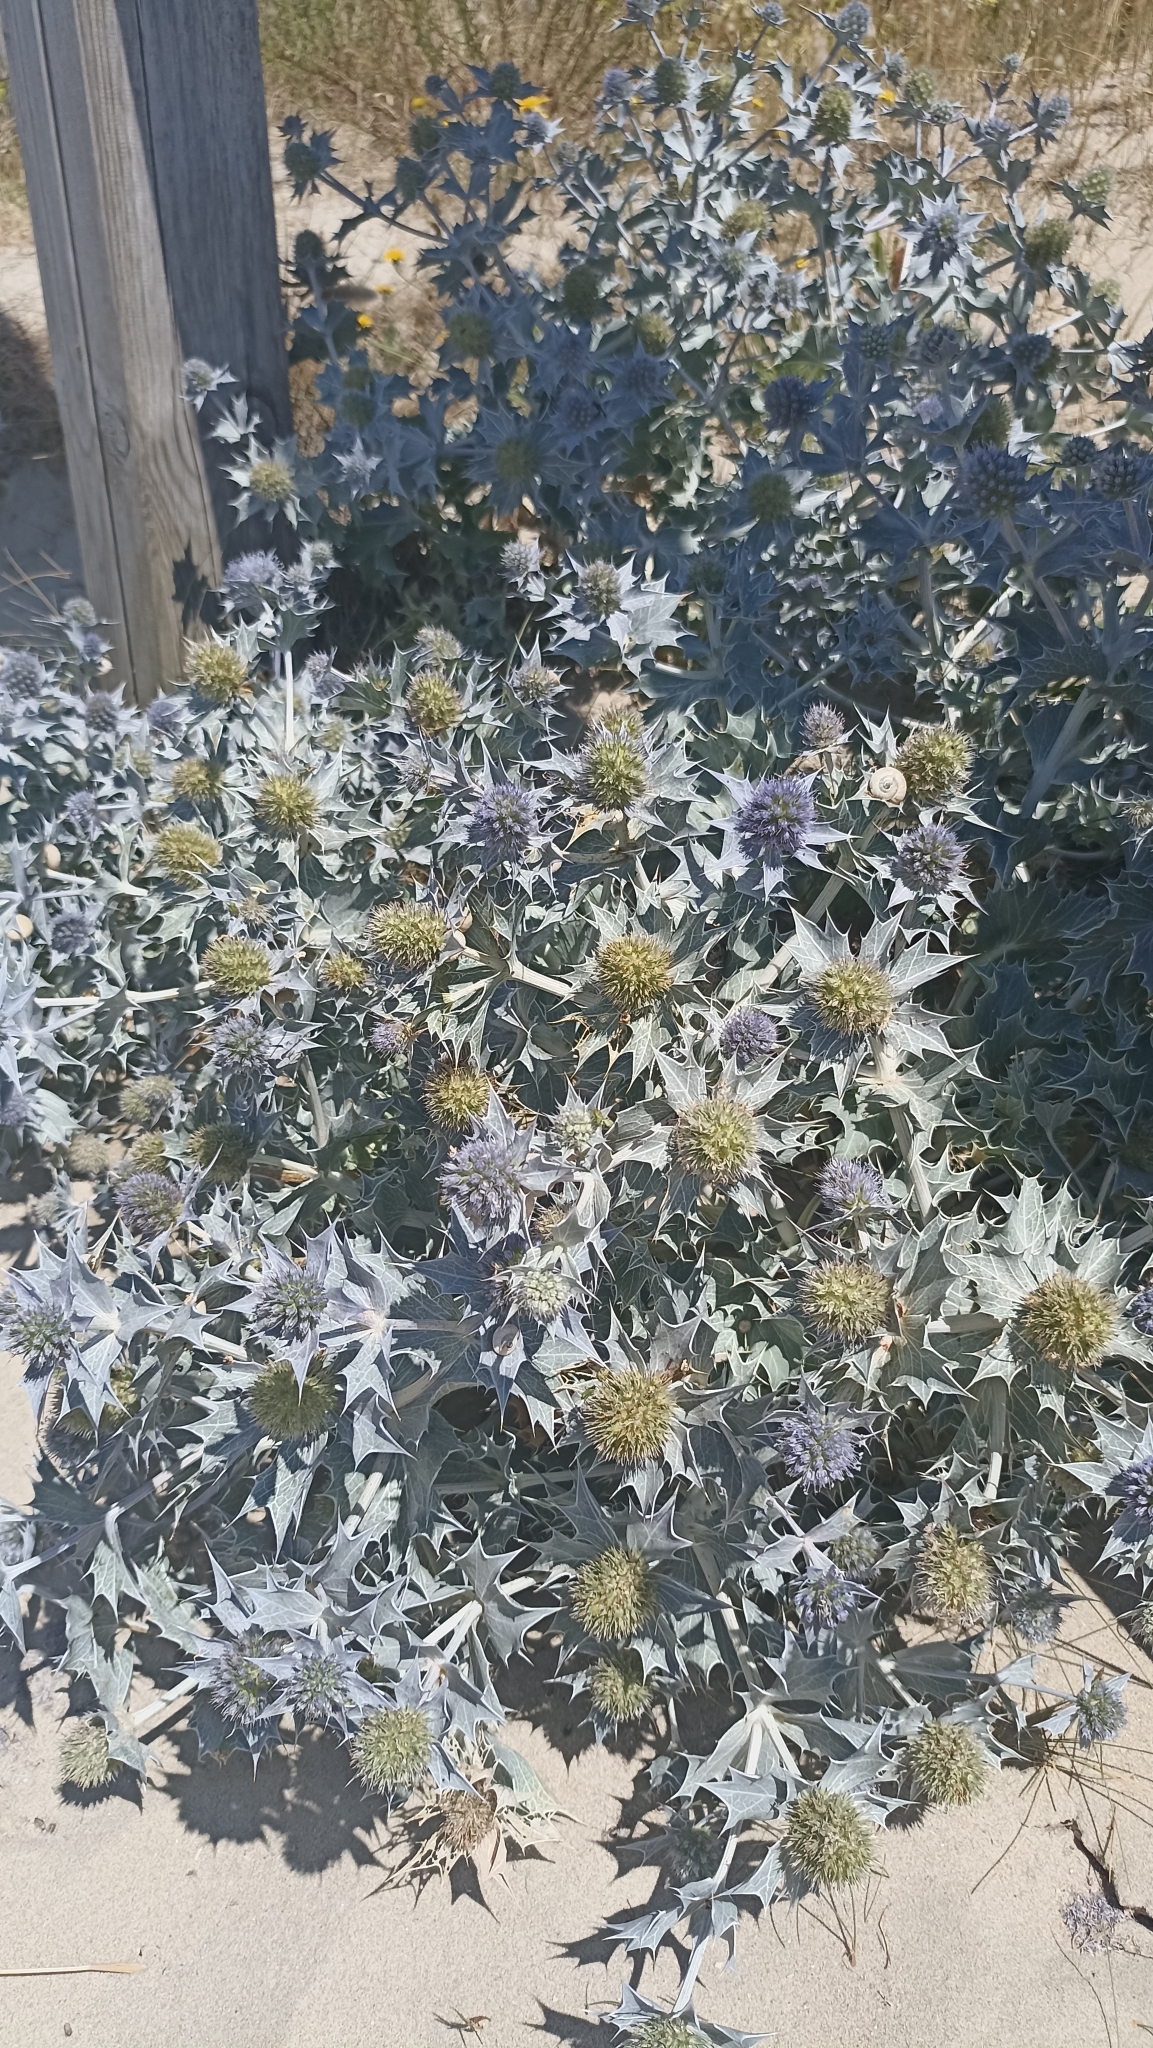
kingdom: Plantae
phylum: Tracheophyta
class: Magnoliopsida
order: Apiales
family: Apiaceae
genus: Eryngium
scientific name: Eryngium maritimum
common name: Sea-holly
